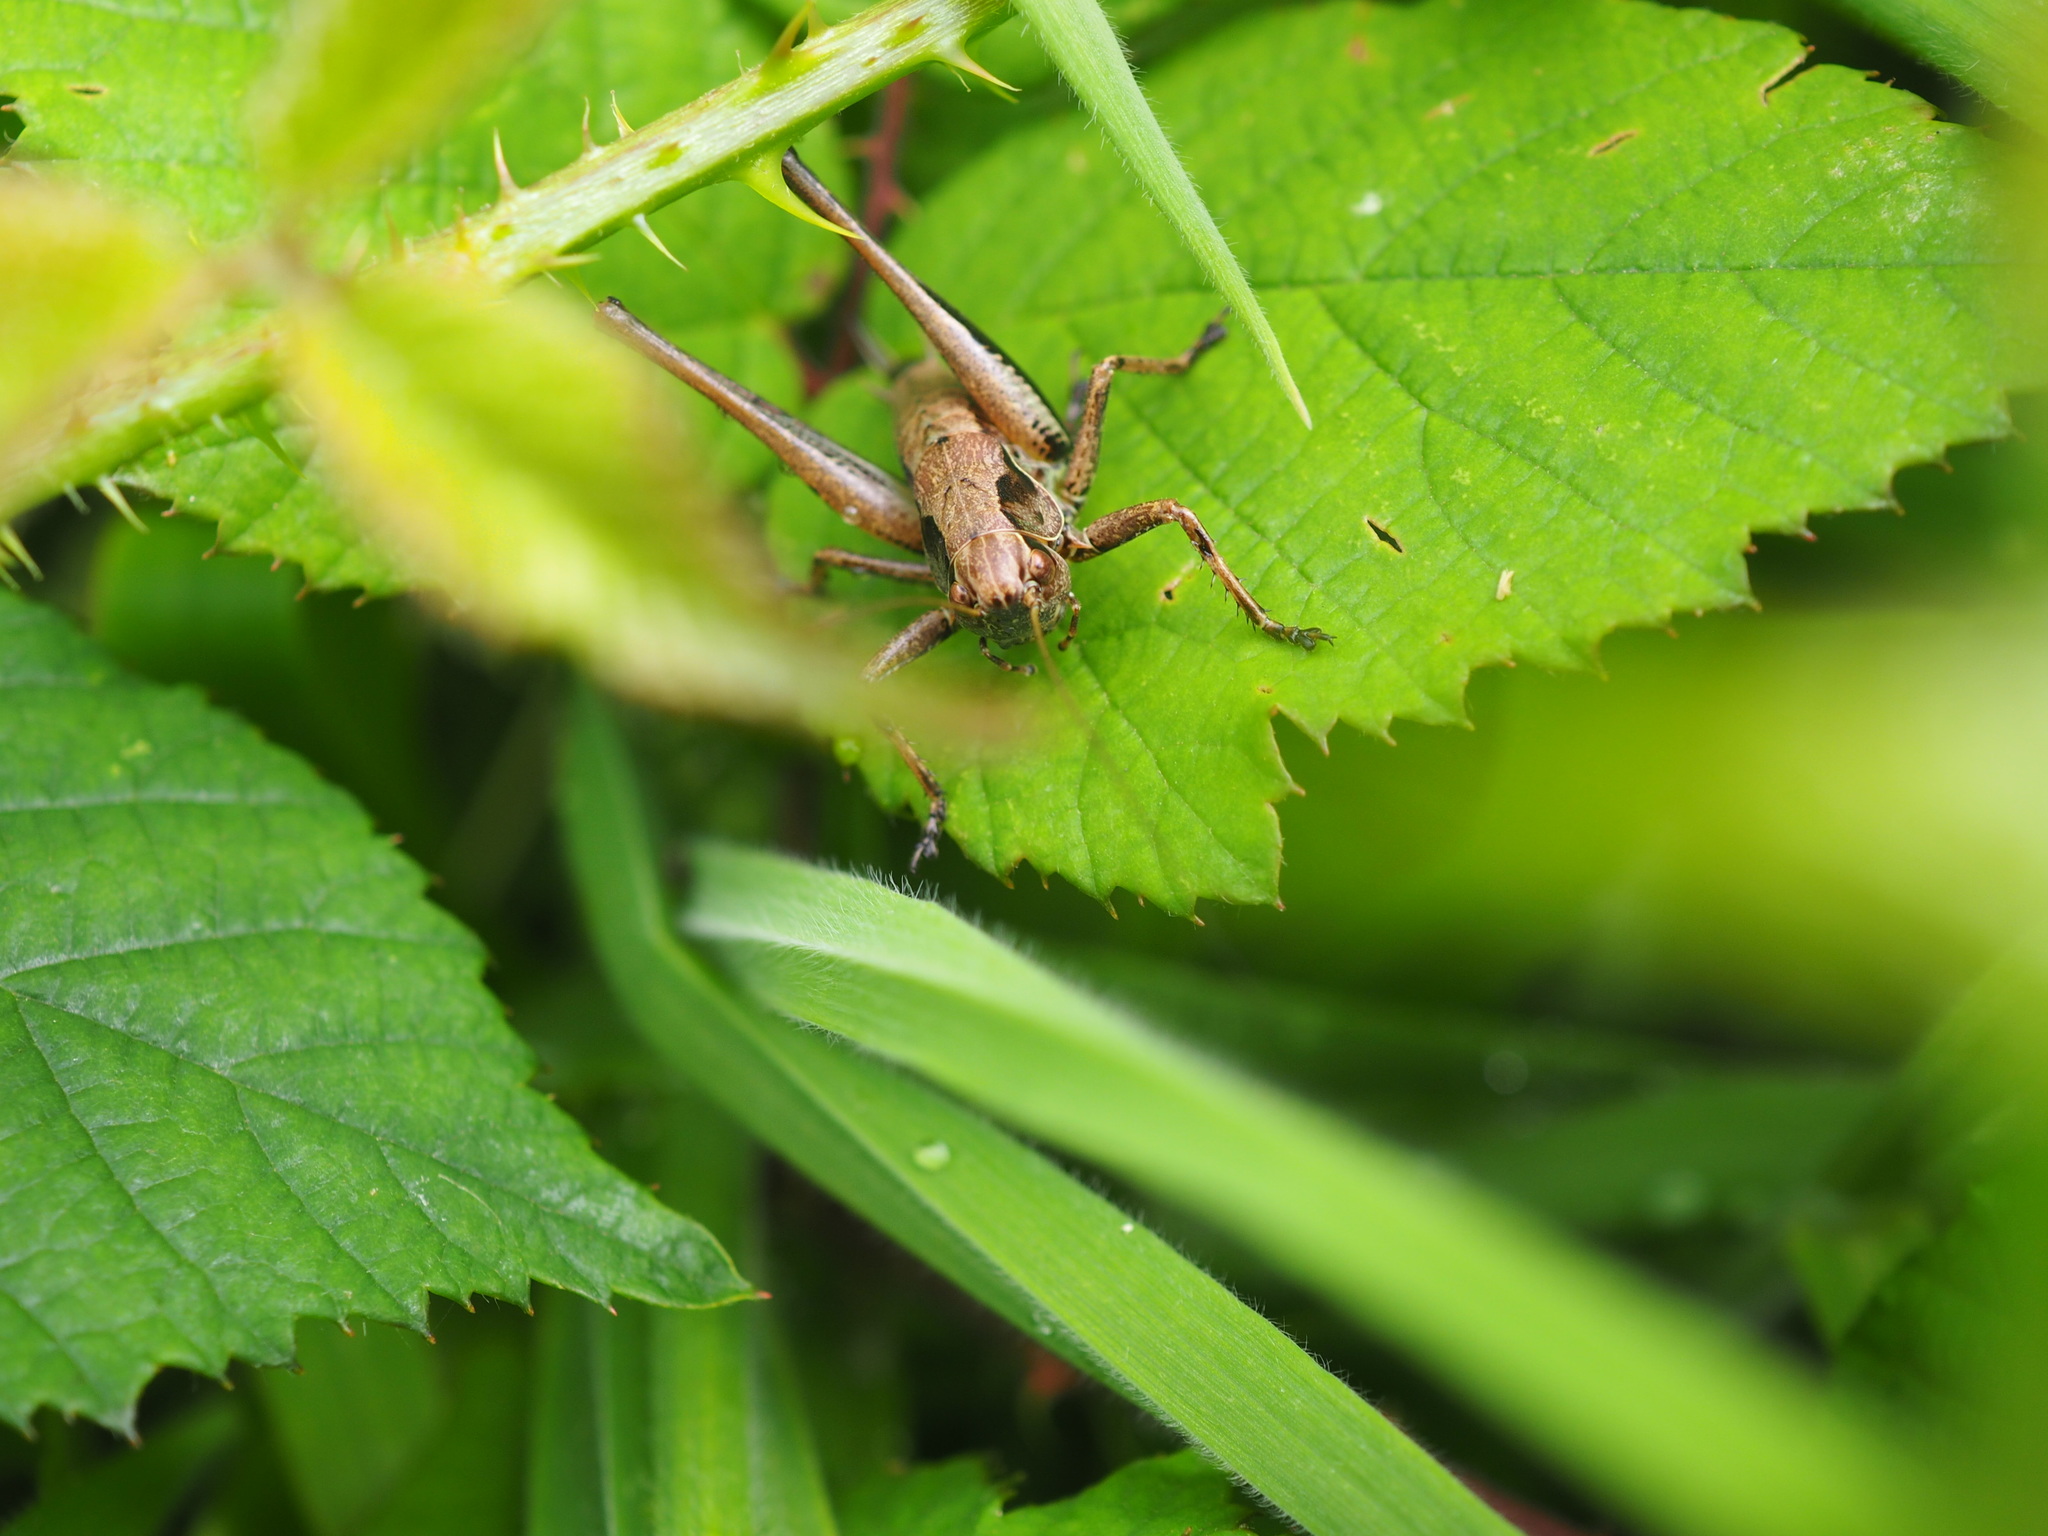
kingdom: Animalia
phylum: Arthropoda
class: Insecta
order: Orthoptera
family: Tettigoniidae
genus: Pholidoptera
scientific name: Pholidoptera griseoaptera
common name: Dark bush-cricket
